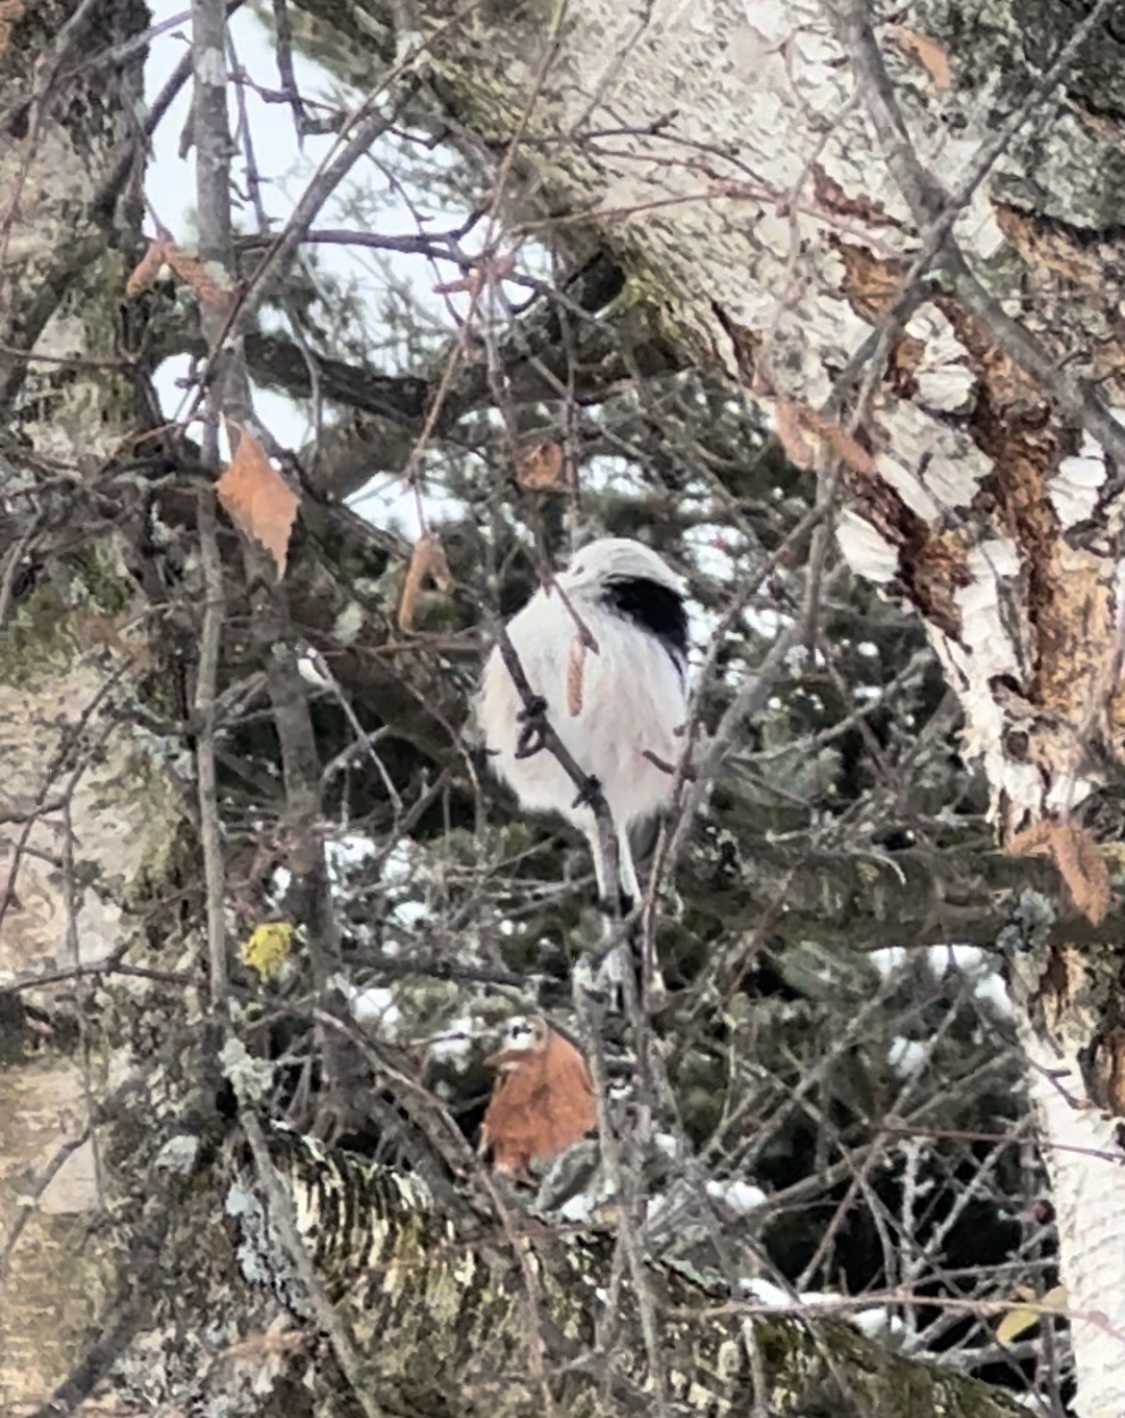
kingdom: Animalia
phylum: Chordata
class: Aves
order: Passeriformes
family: Aegithalidae
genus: Aegithalos
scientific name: Aegithalos caudatus
